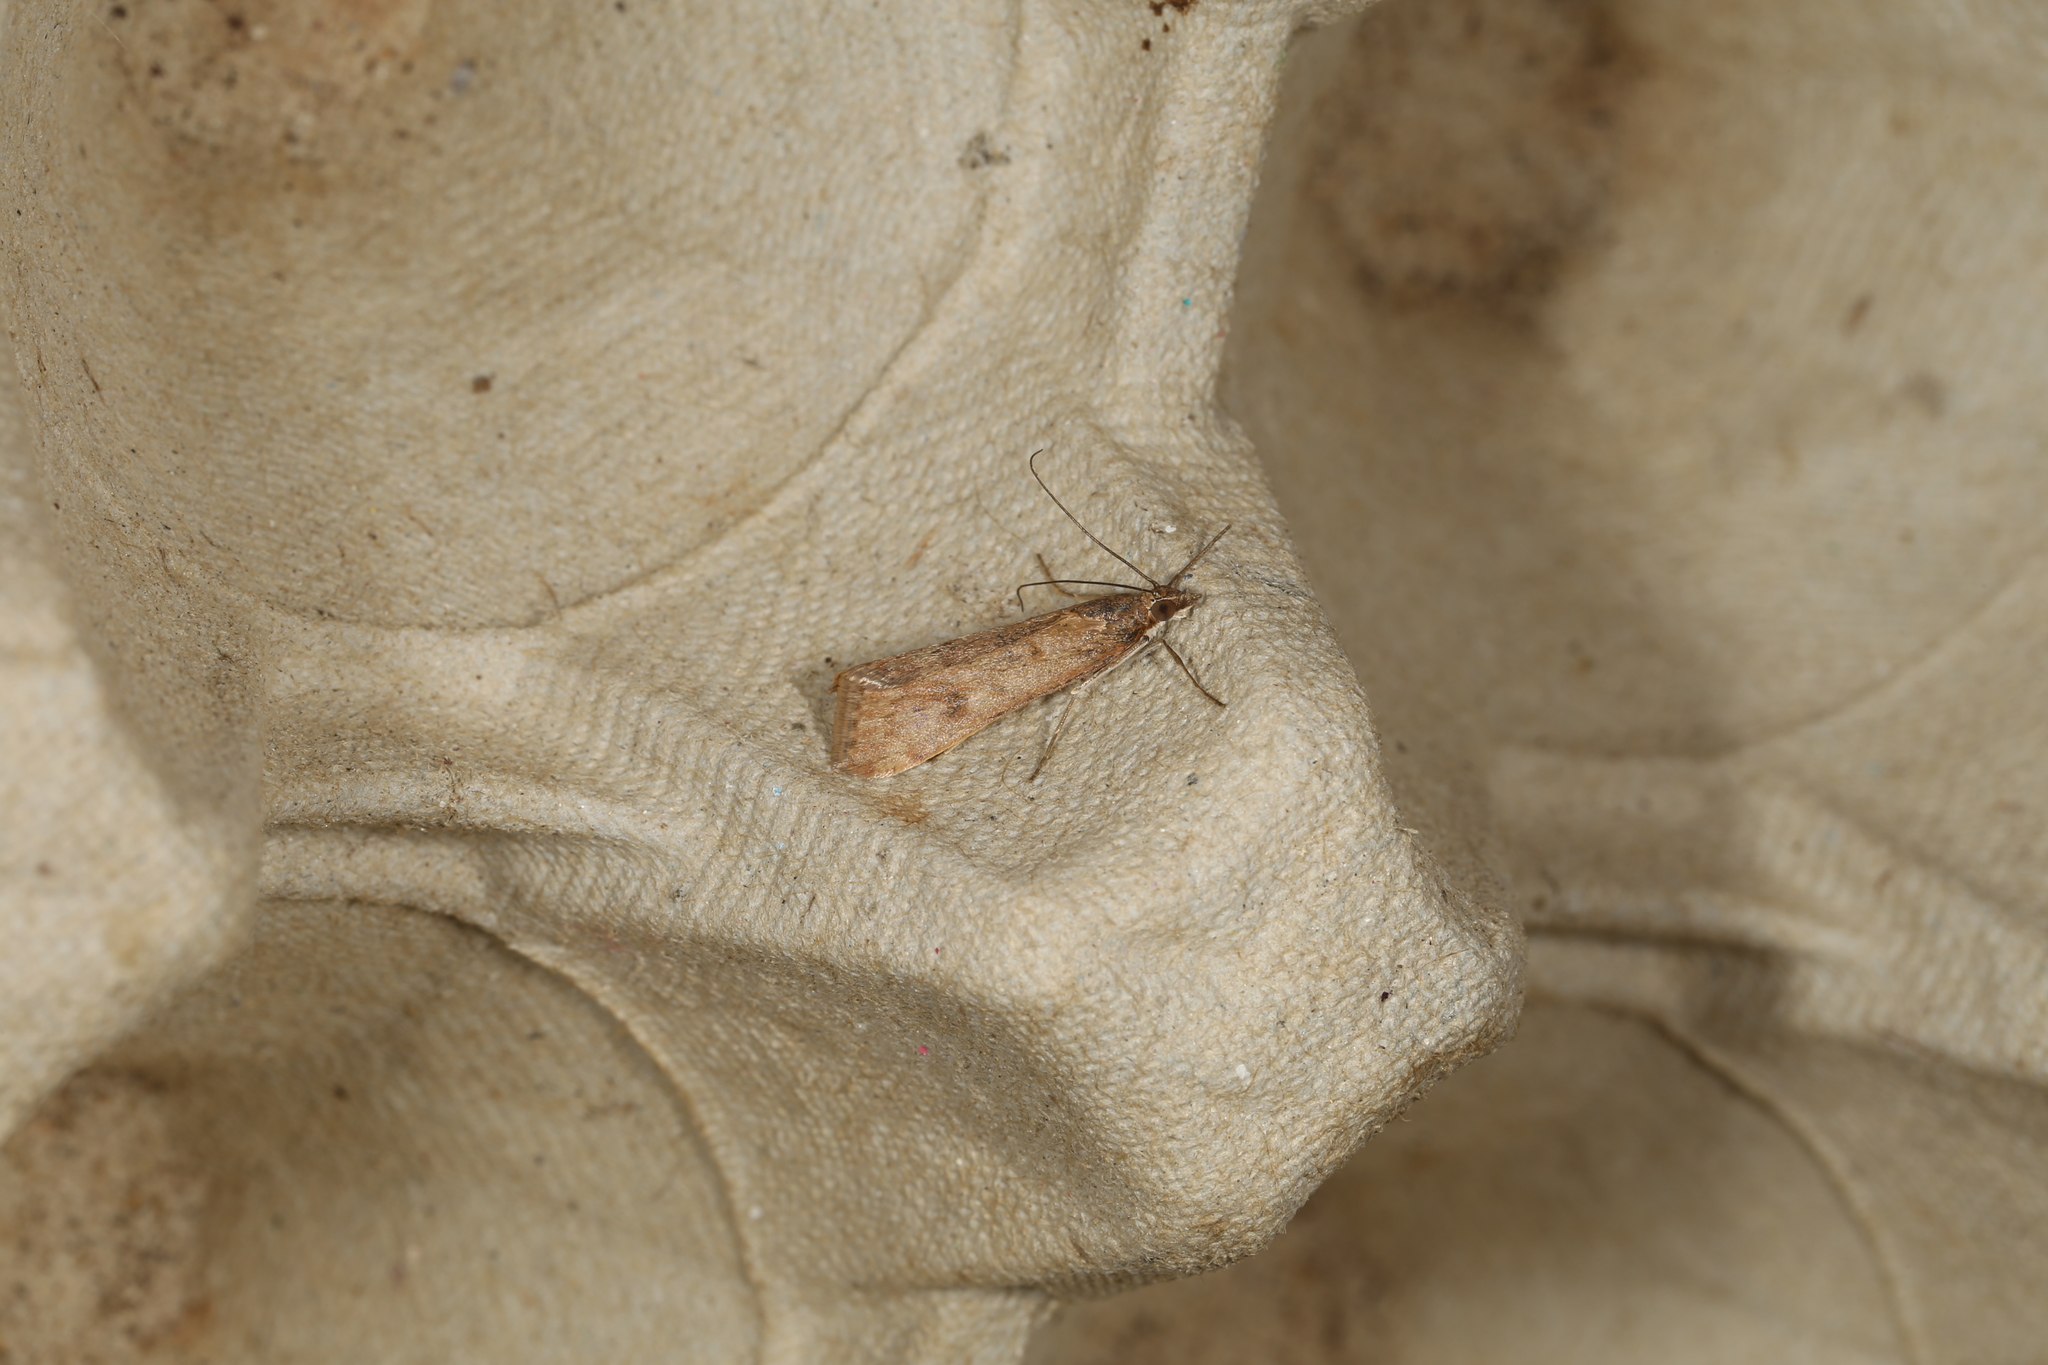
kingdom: Animalia
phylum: Arthropoda
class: Insecta
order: Lepidoptera
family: Crambidae
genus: Achyra
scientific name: Achyra affinitalis
